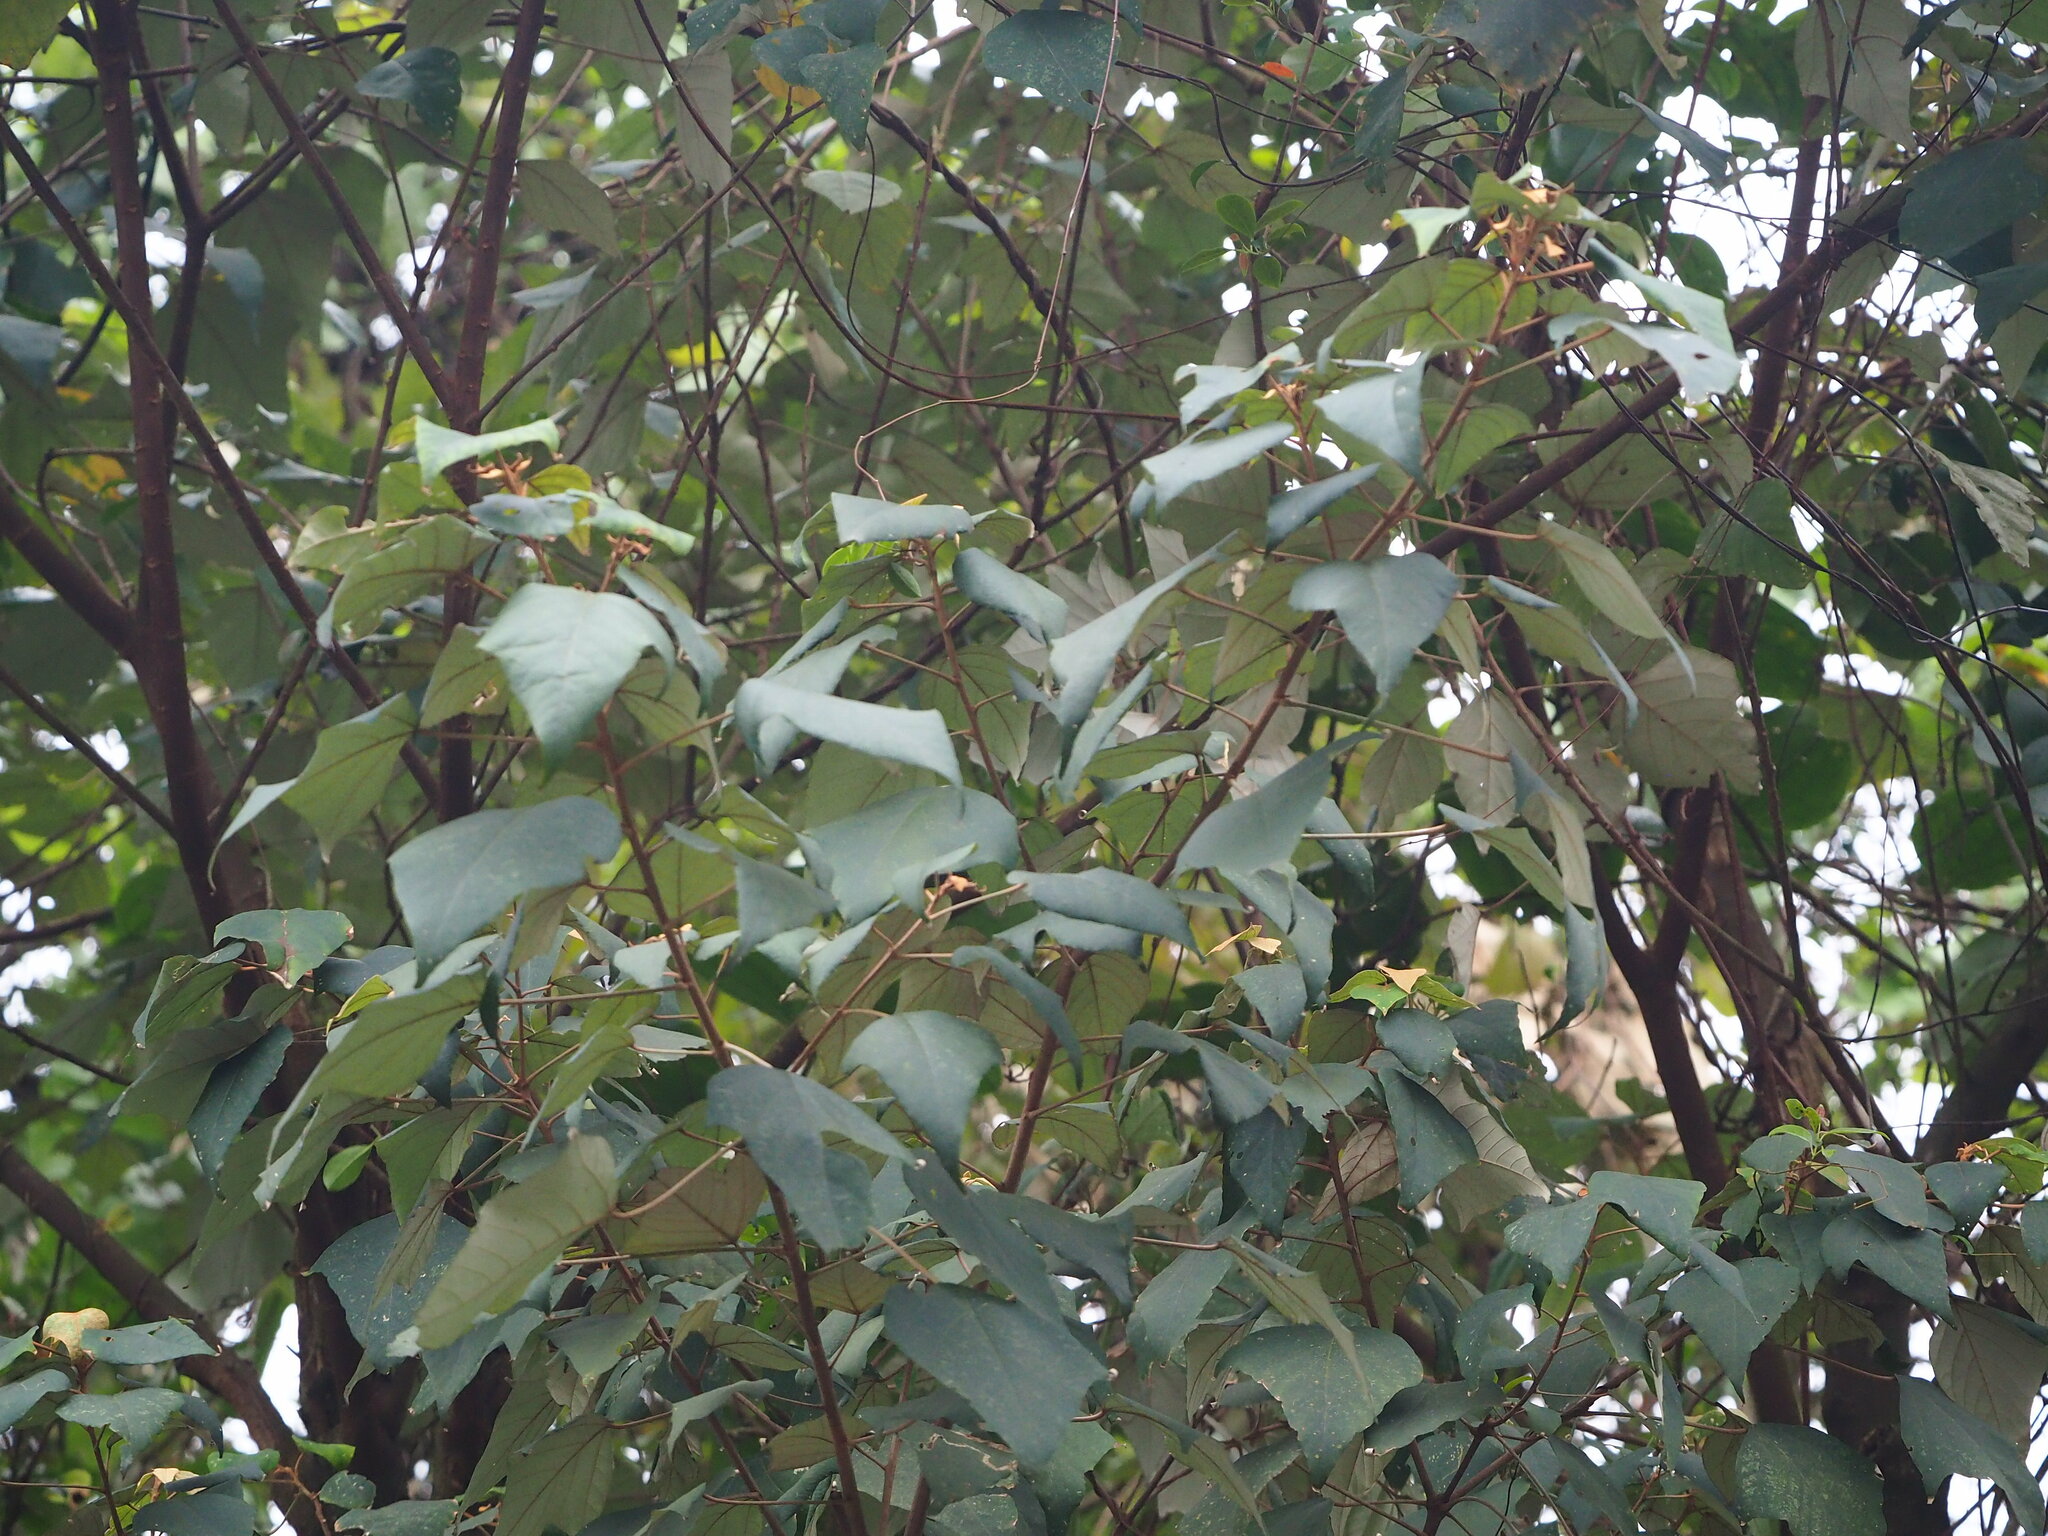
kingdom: Plantae
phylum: Tracheophyta
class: Magnoliopsida
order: Malpighiales
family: Euphorbiaceae
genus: Mallotus
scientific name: Mallotus paniculatus
